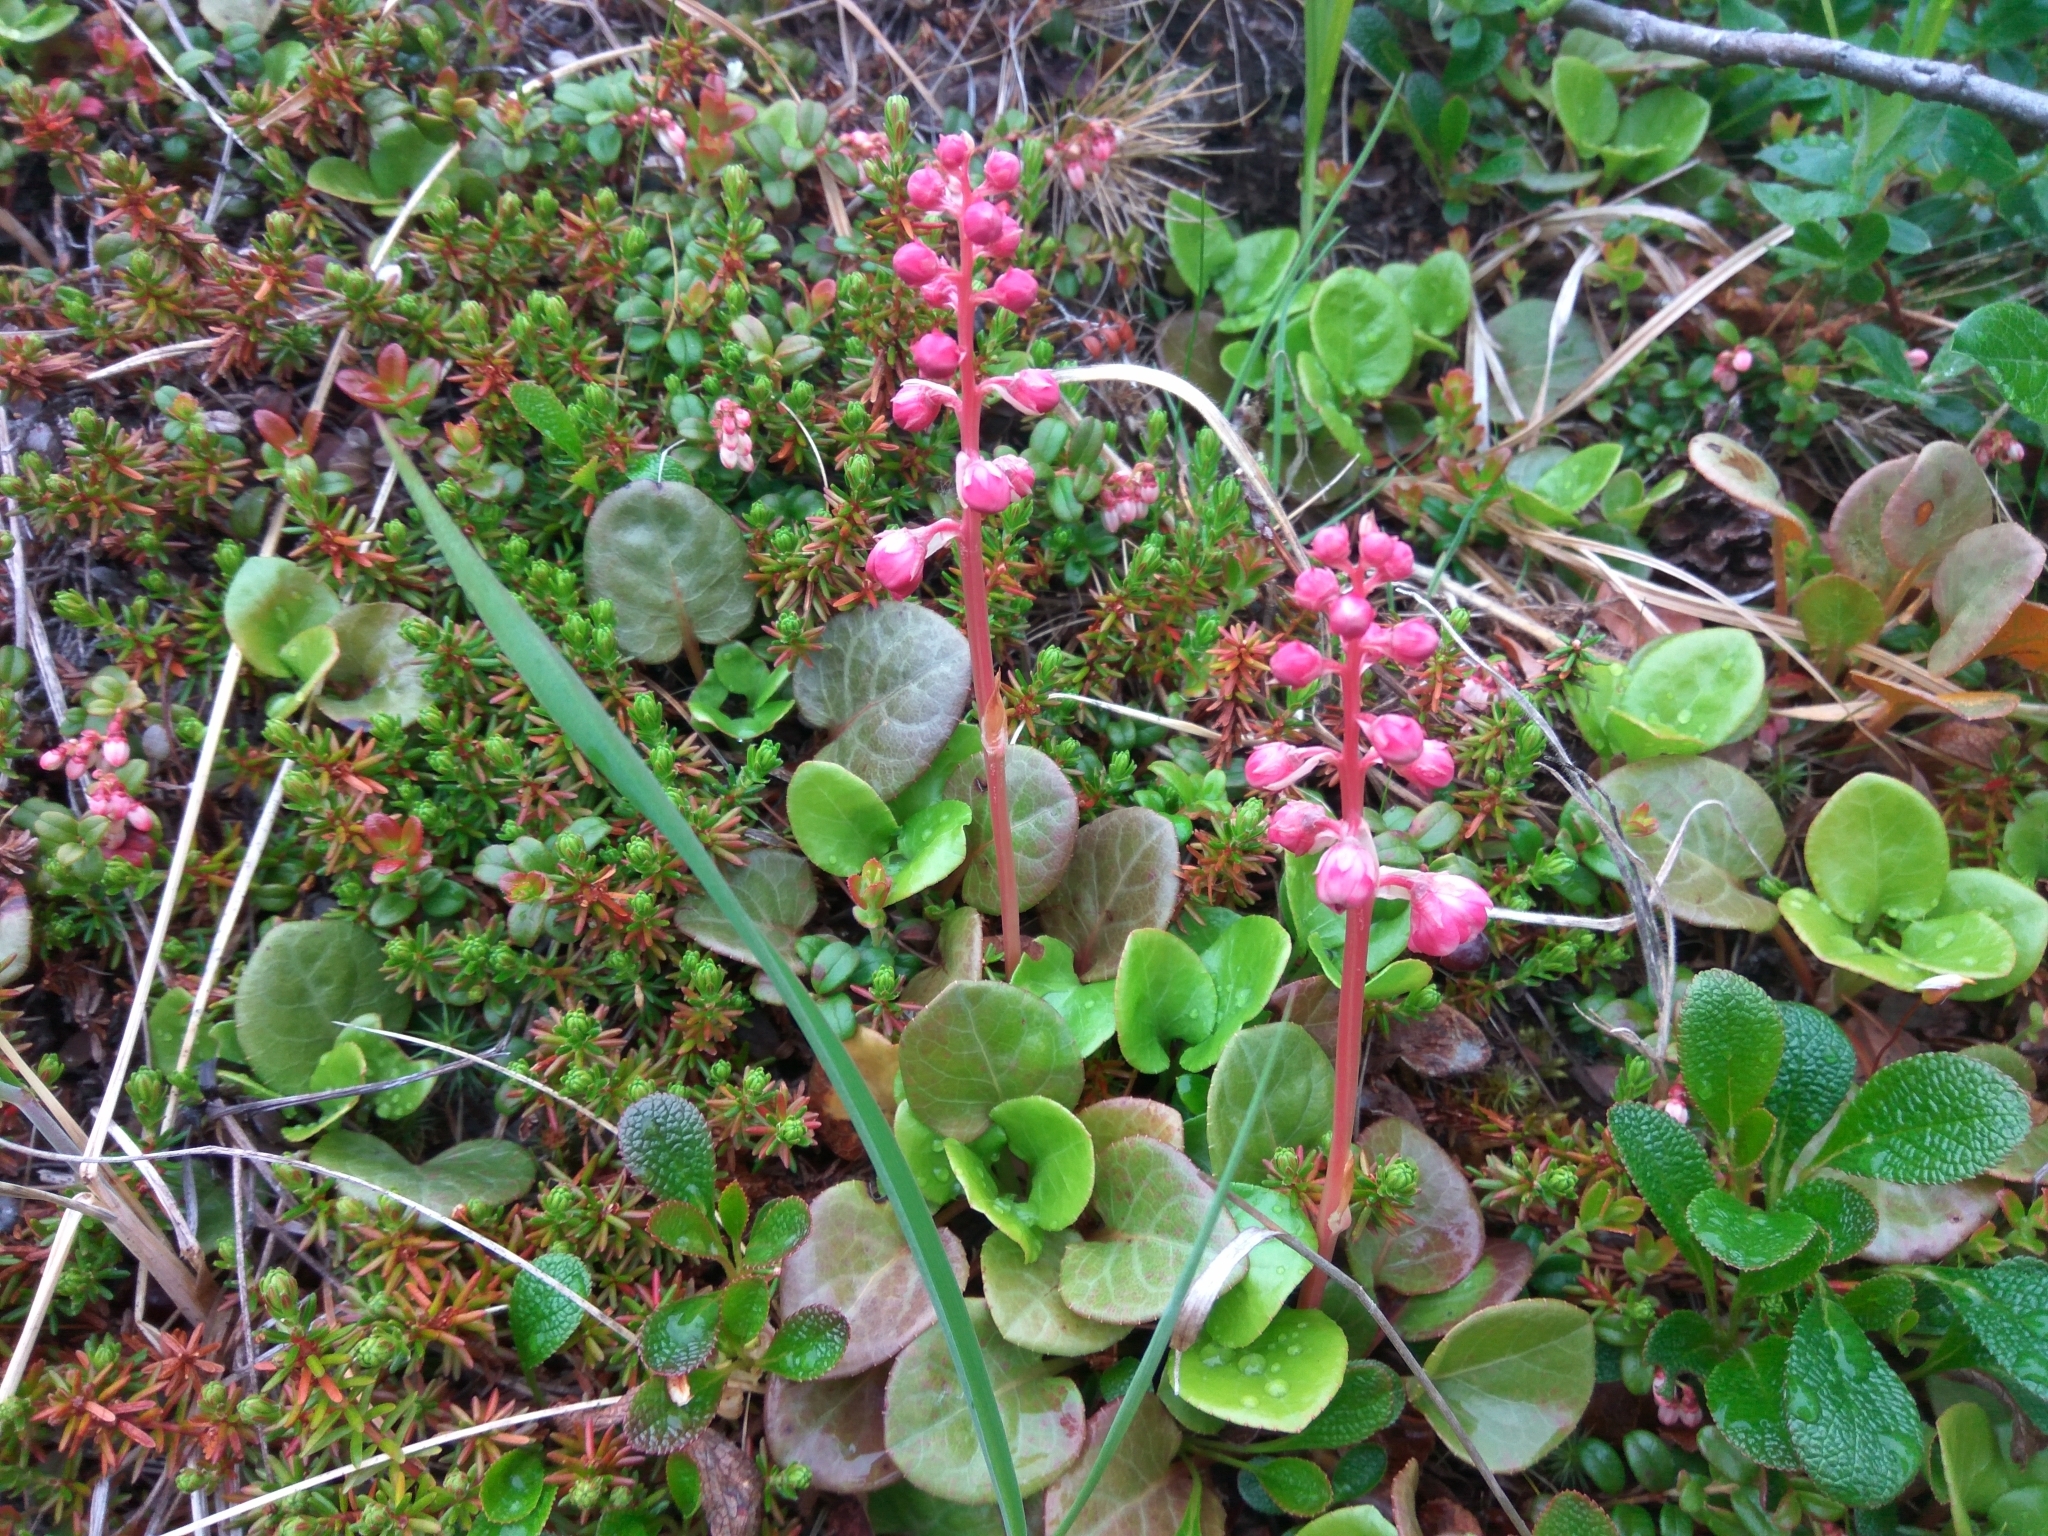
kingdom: Plantae
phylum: Tracheophyta
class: Magnoliopsida
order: Ericales
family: Ericaceae
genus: Pyrola
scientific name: Pyrola asarifolia
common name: Bog wintergreen
